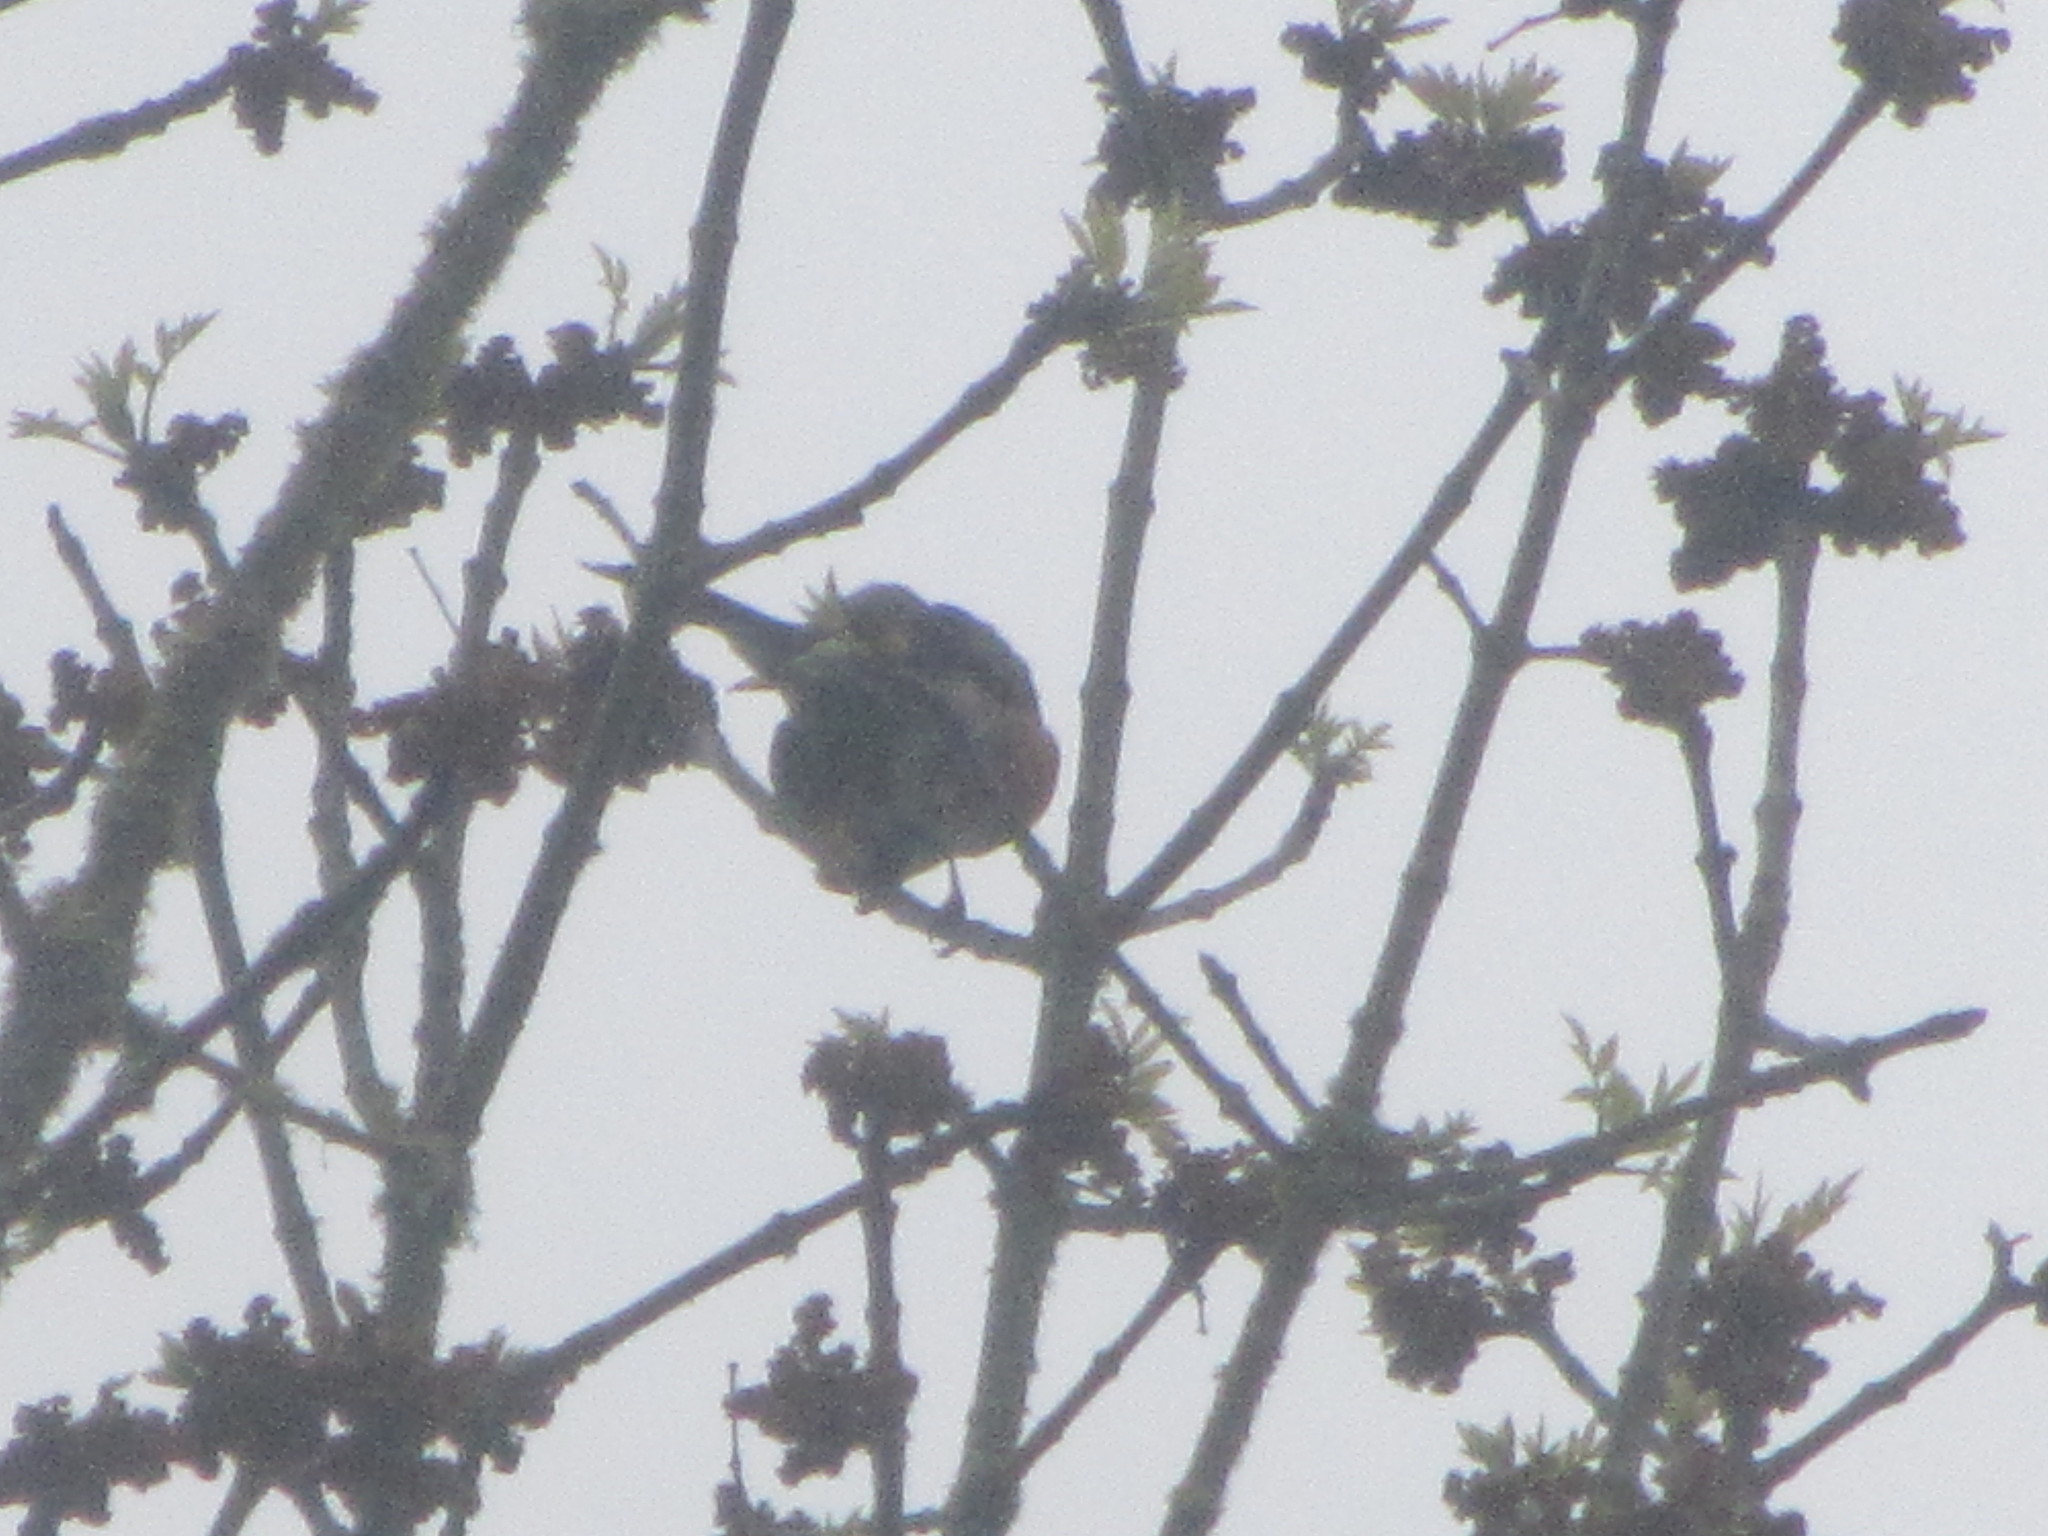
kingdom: Animalia
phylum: Chordata
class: Aves
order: Passeriformes
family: Turdidae
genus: Turdus
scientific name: Turdus migratorius
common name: American robin
